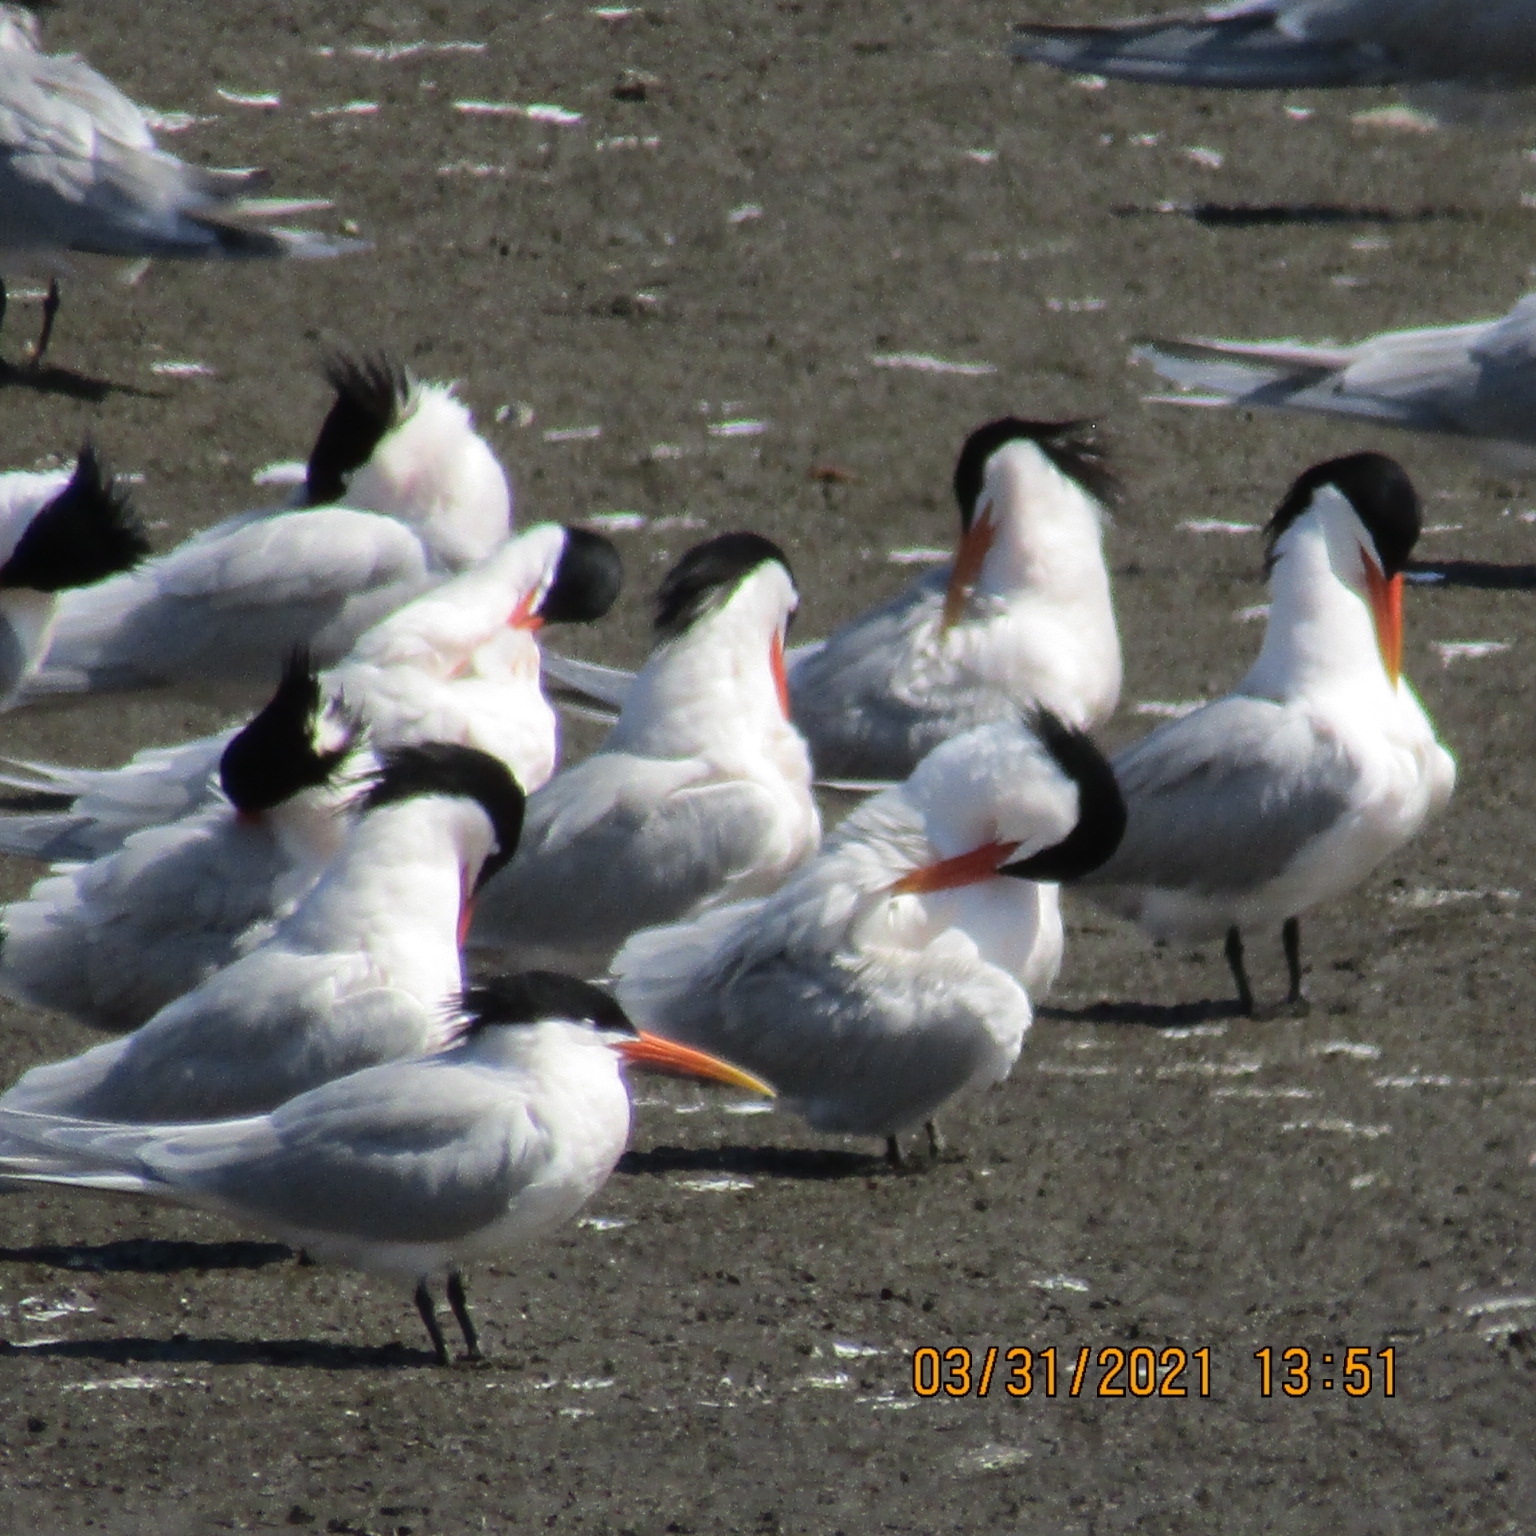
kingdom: Animalia
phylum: Chordata
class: Aves
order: Charadriiformes
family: Laridae
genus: Thalasseus
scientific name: Thalasseus elegans
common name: Elegant tern
